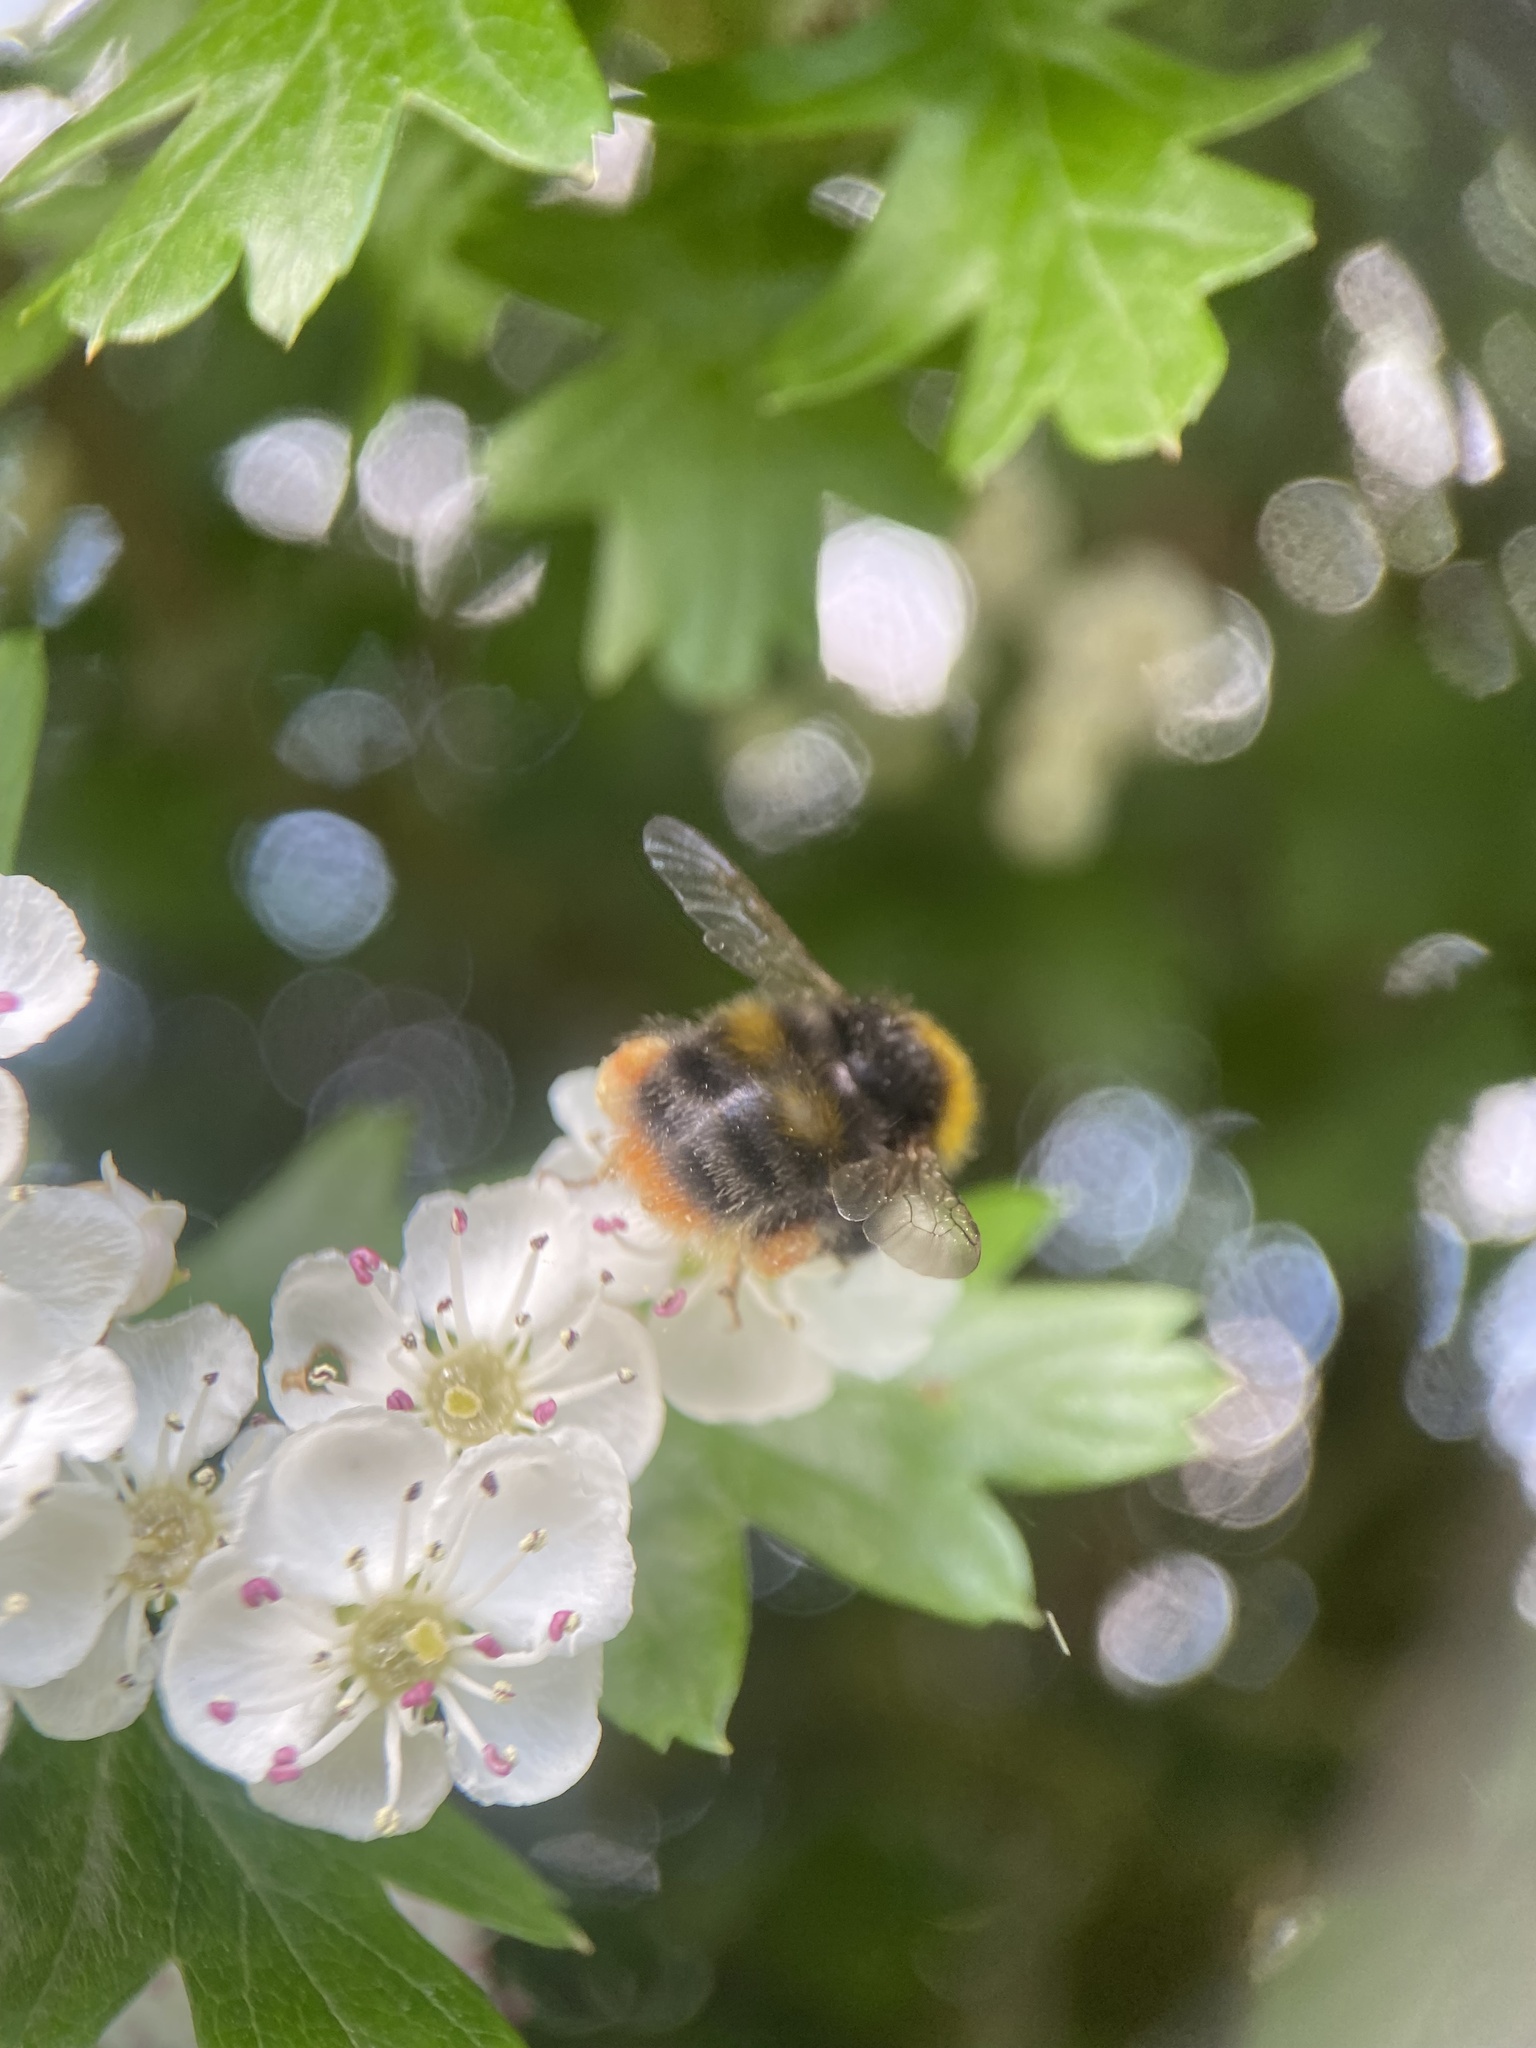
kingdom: Animalia
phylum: Arthropoda
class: Insecta
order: Hymenoptera
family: Apidae
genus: Bombus
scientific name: Bombus pratorum
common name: Early humble-bee
